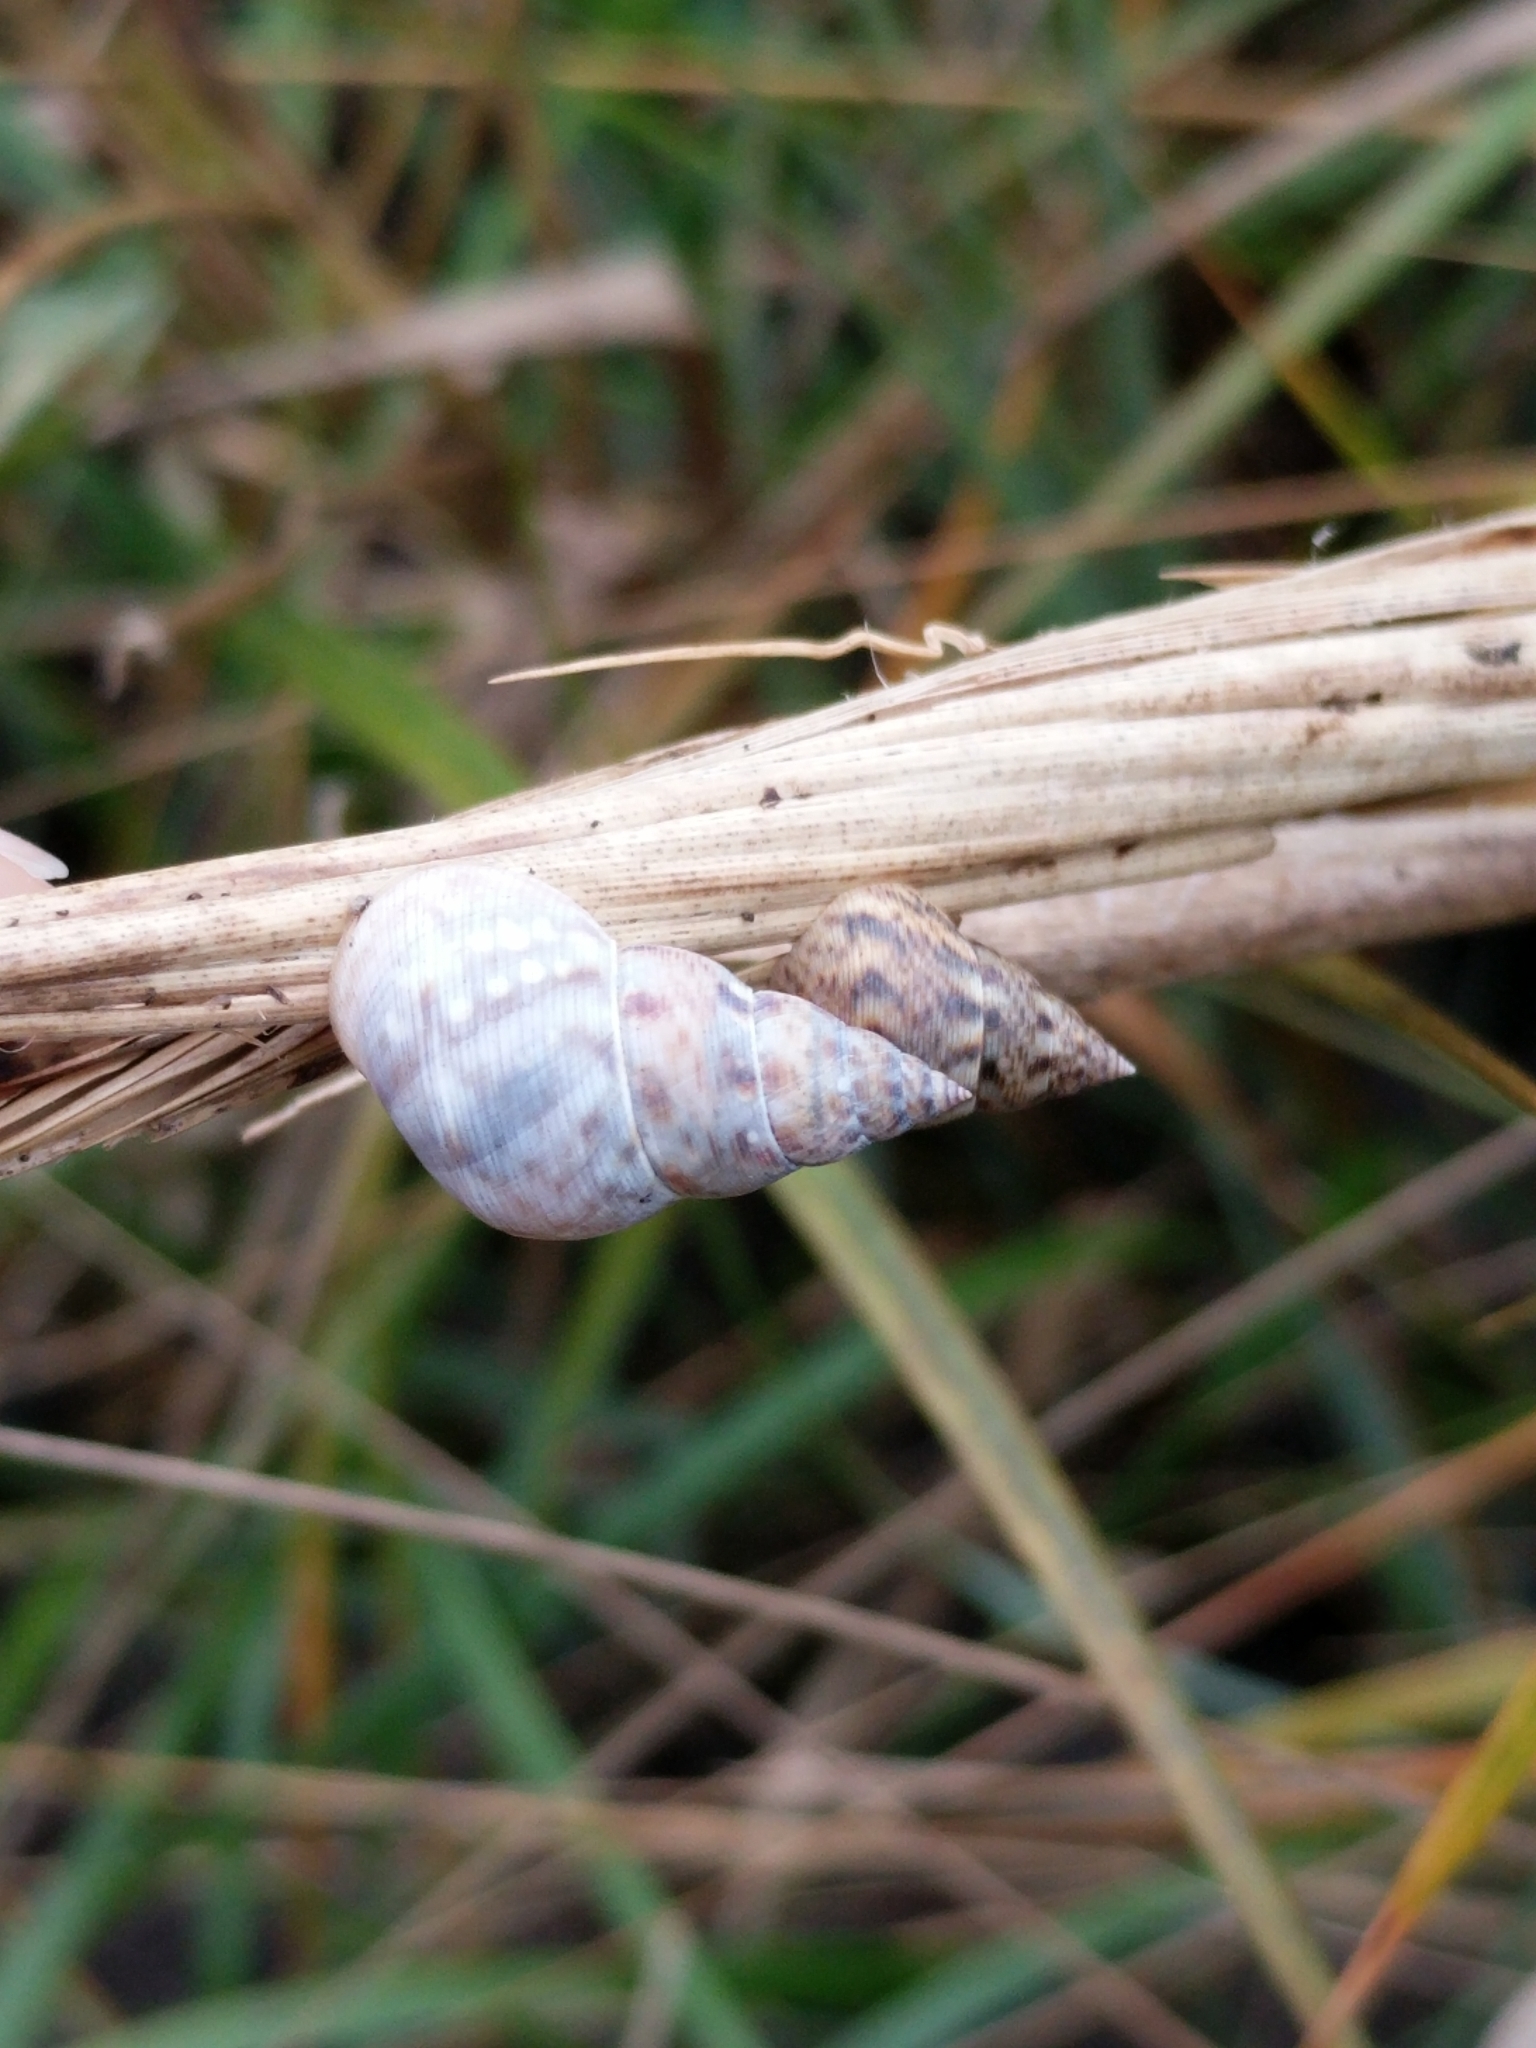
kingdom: Animalia
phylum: Mollusca
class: Gastropoda
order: Littorinimorpha
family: Littorinidae
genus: Littoraria
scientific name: Littoraria angulifera
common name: Mangrove periwinkle
